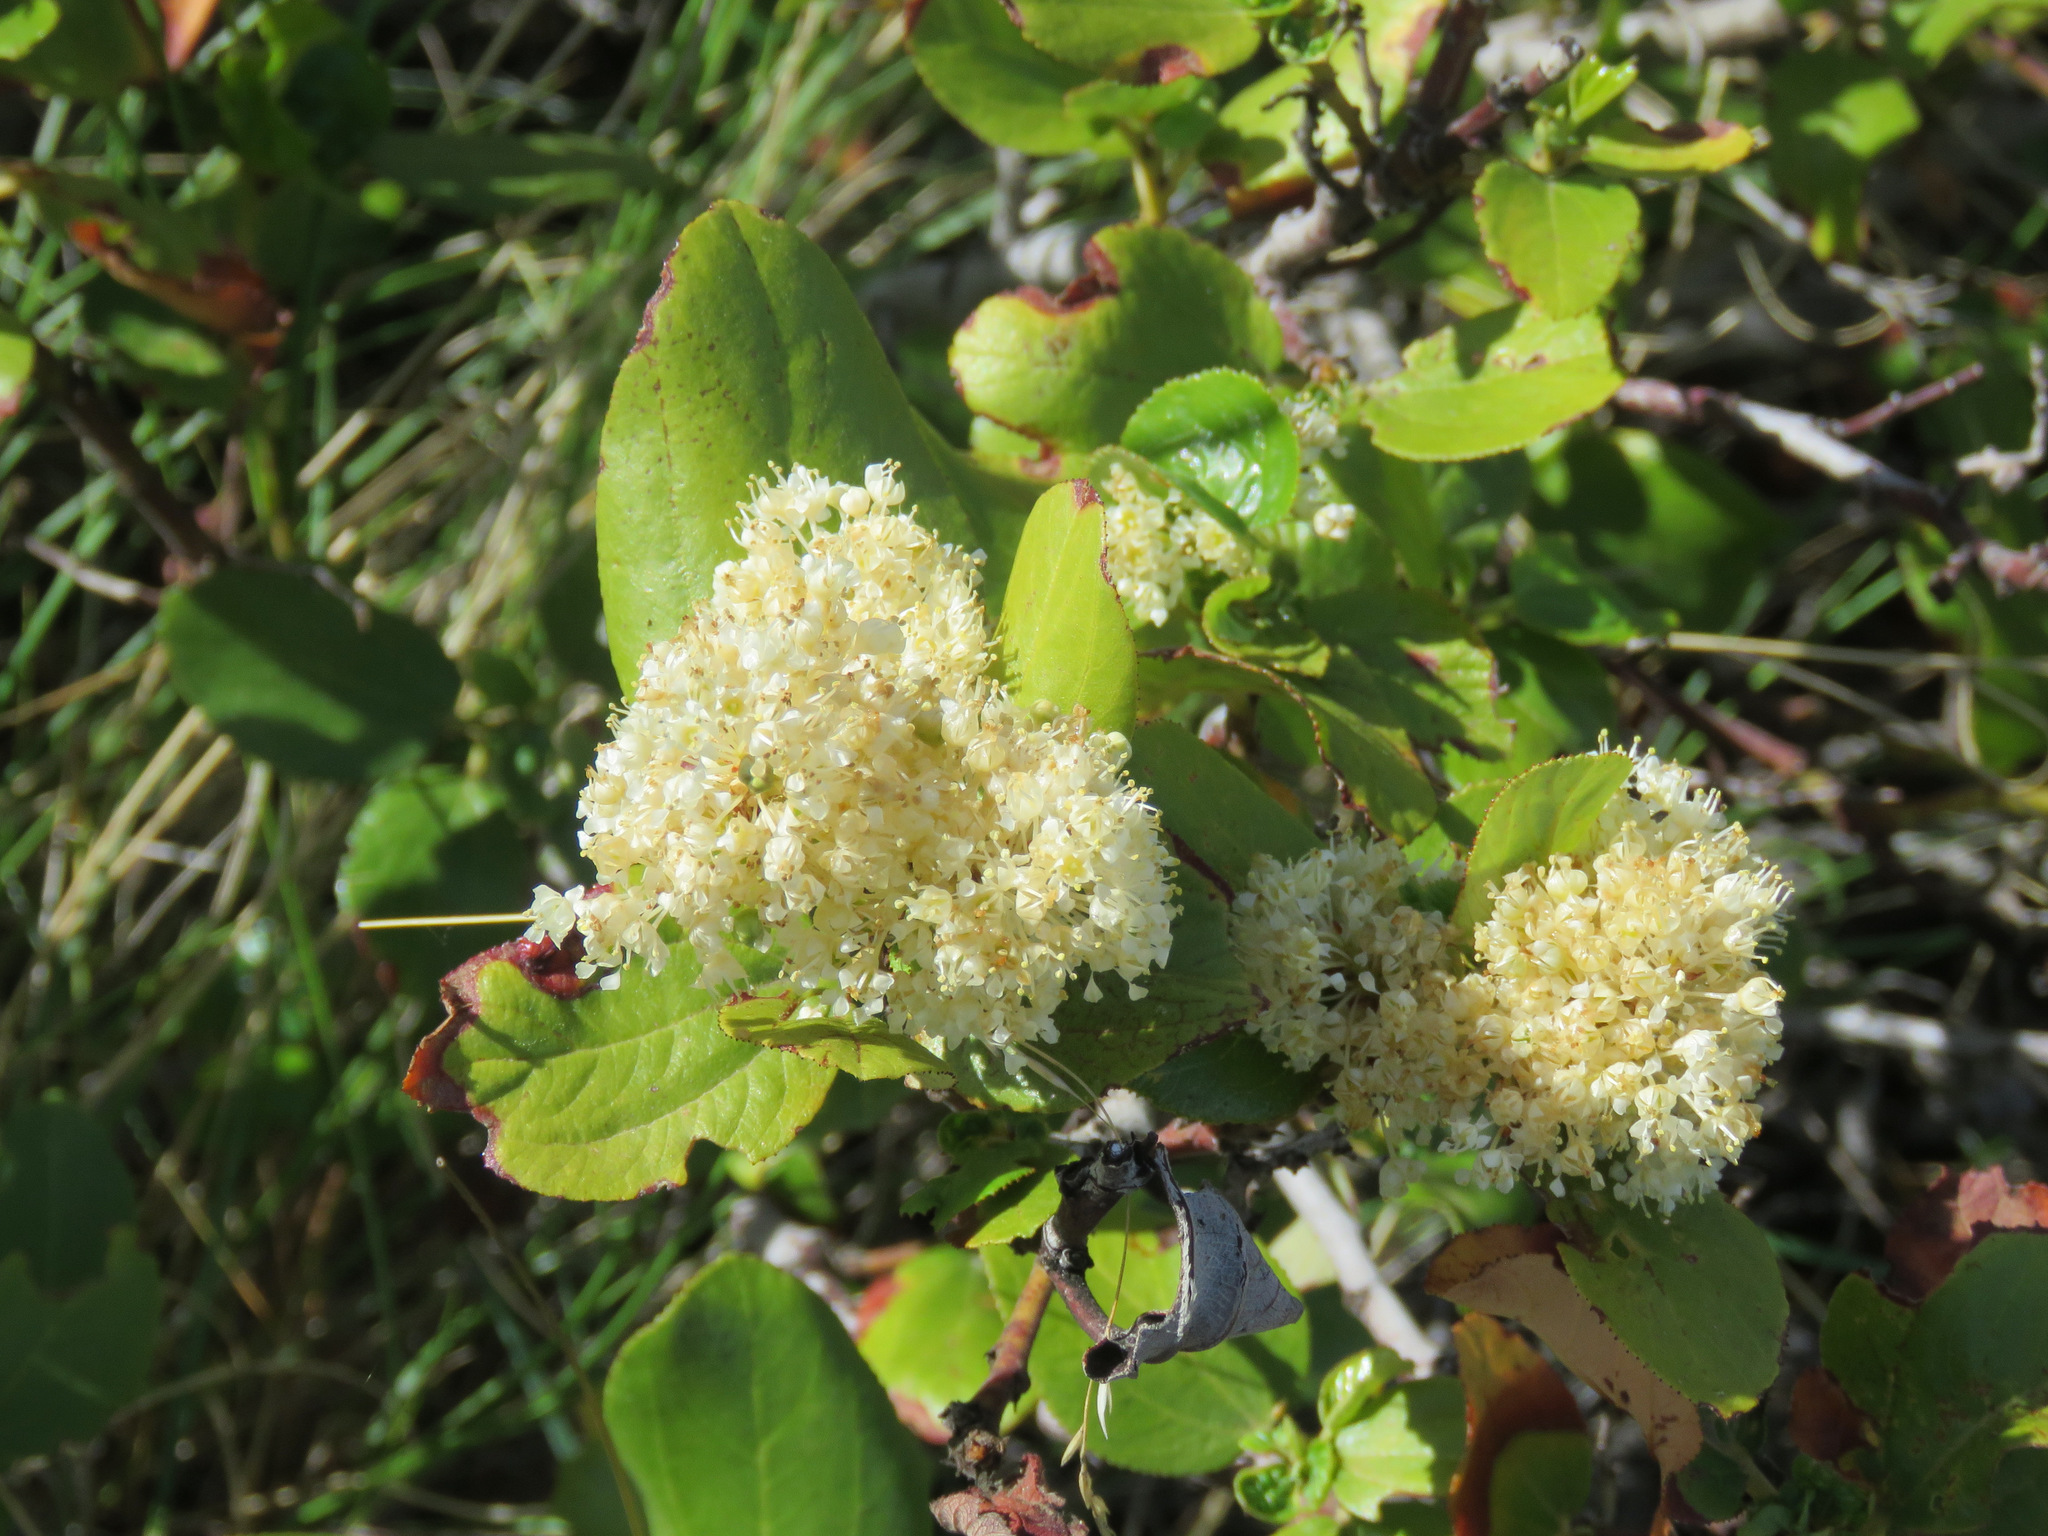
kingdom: Plantae
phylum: Tracheophyta
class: Magnoliopsida
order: Rosales
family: Rhamnaceae
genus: Ceanothus
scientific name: Ceanothus velutinus
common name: Snowbrush
